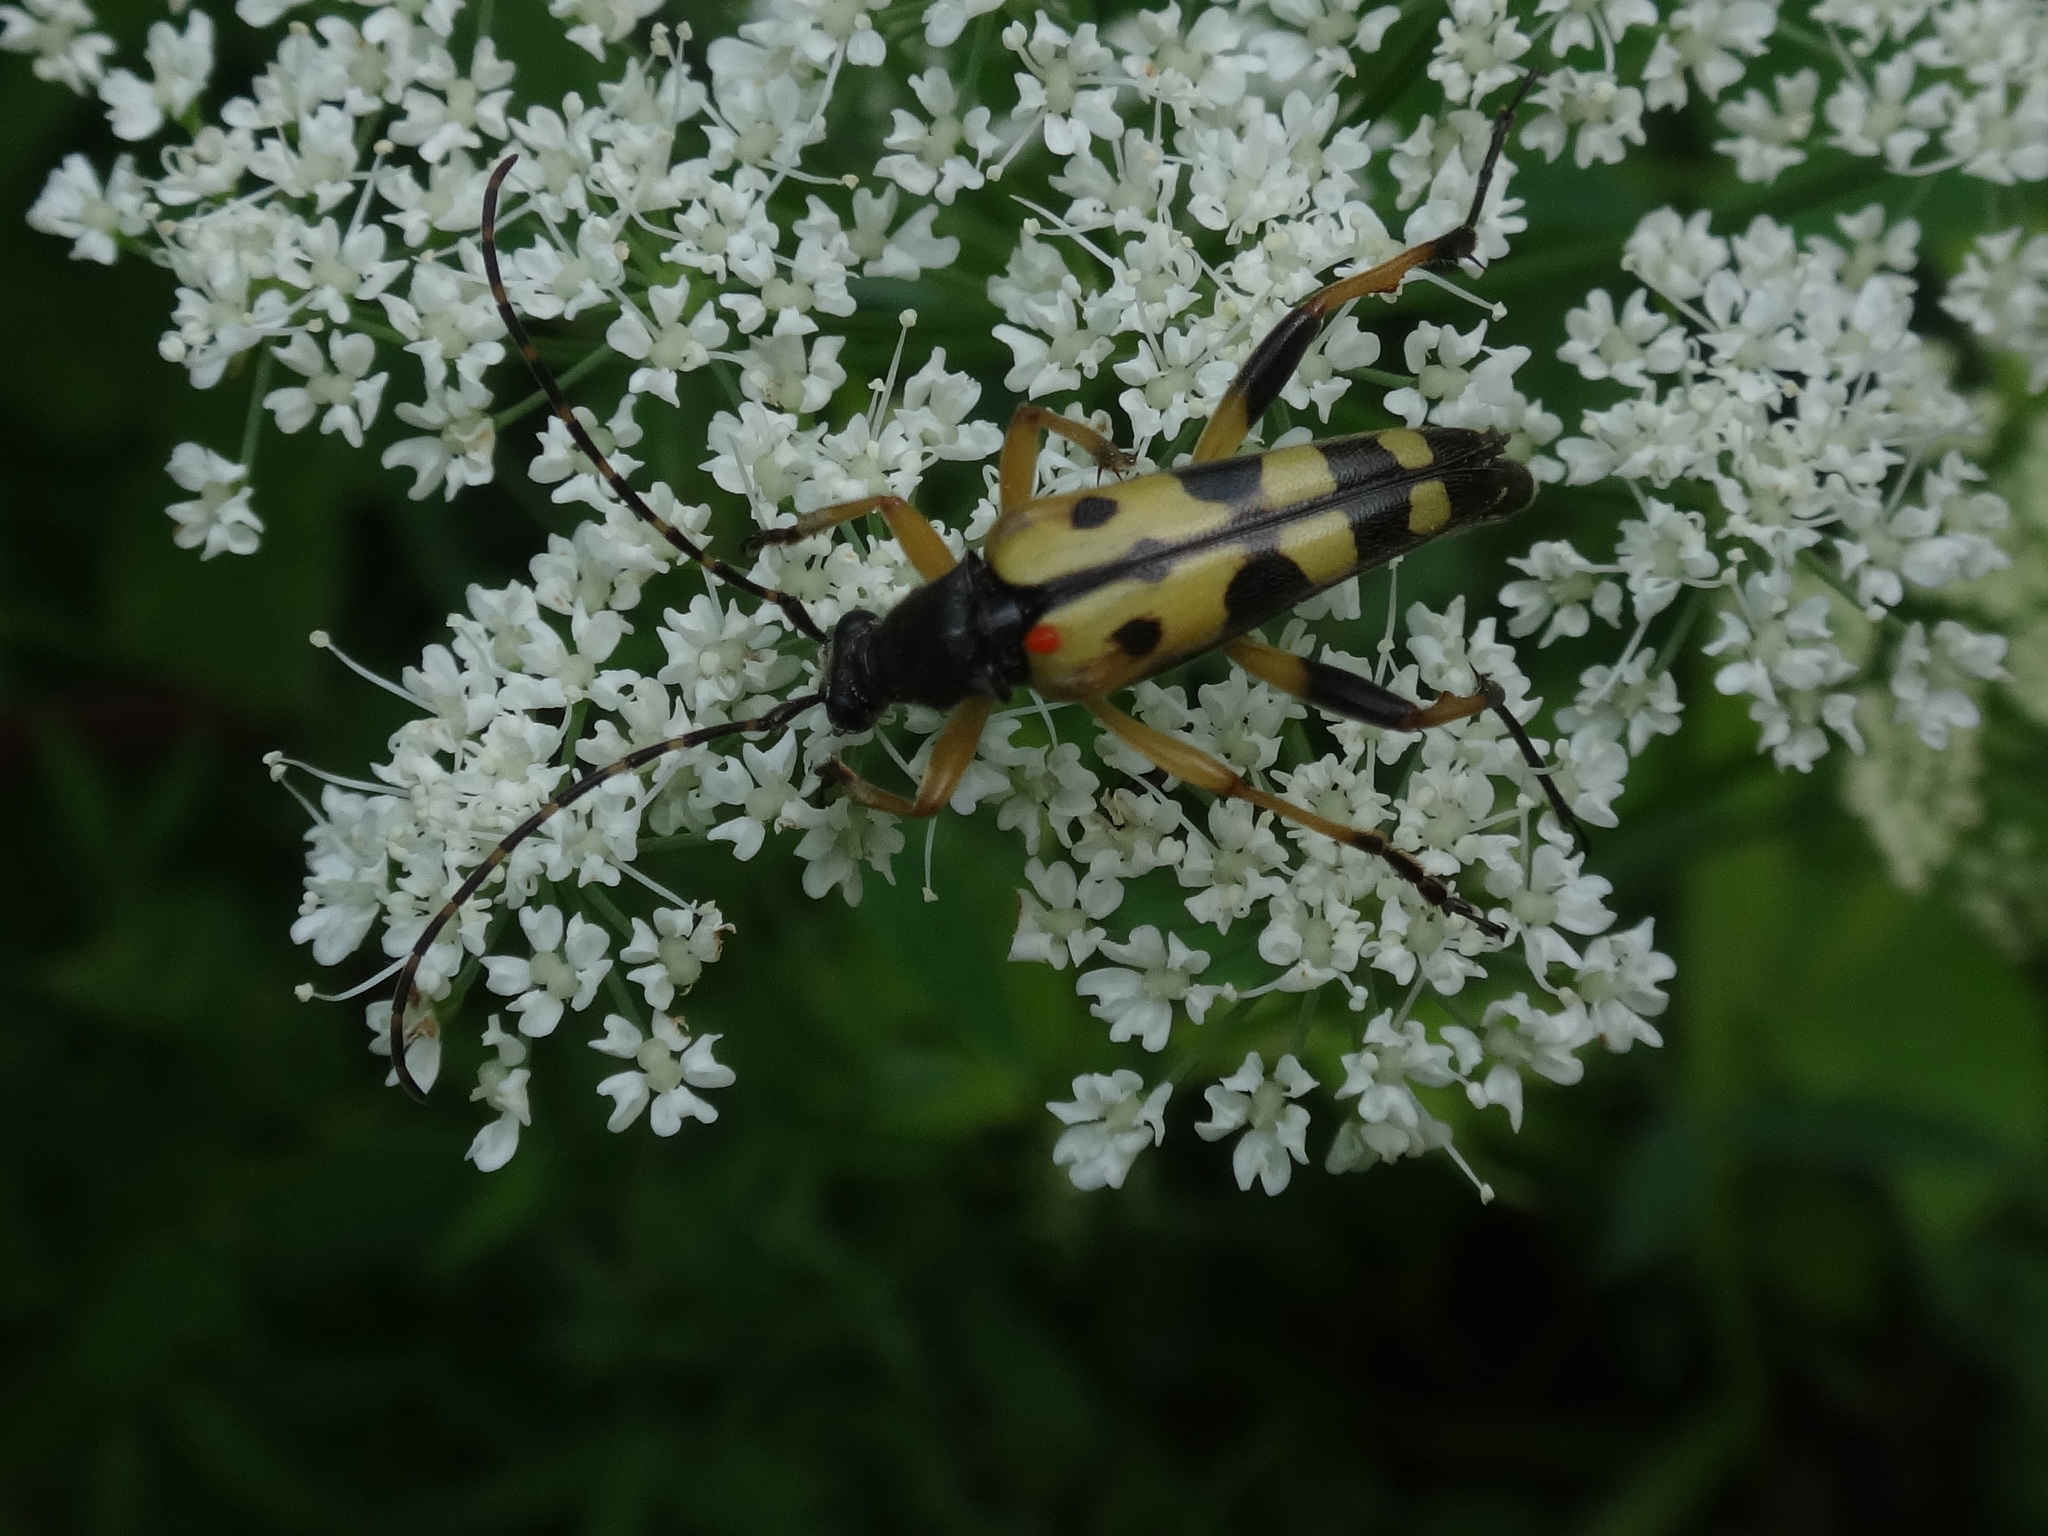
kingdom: Animalia
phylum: Arthropoda
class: Insecta
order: Coleoptera
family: Cerambycidae
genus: Rutpela
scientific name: Rutpela maculata
